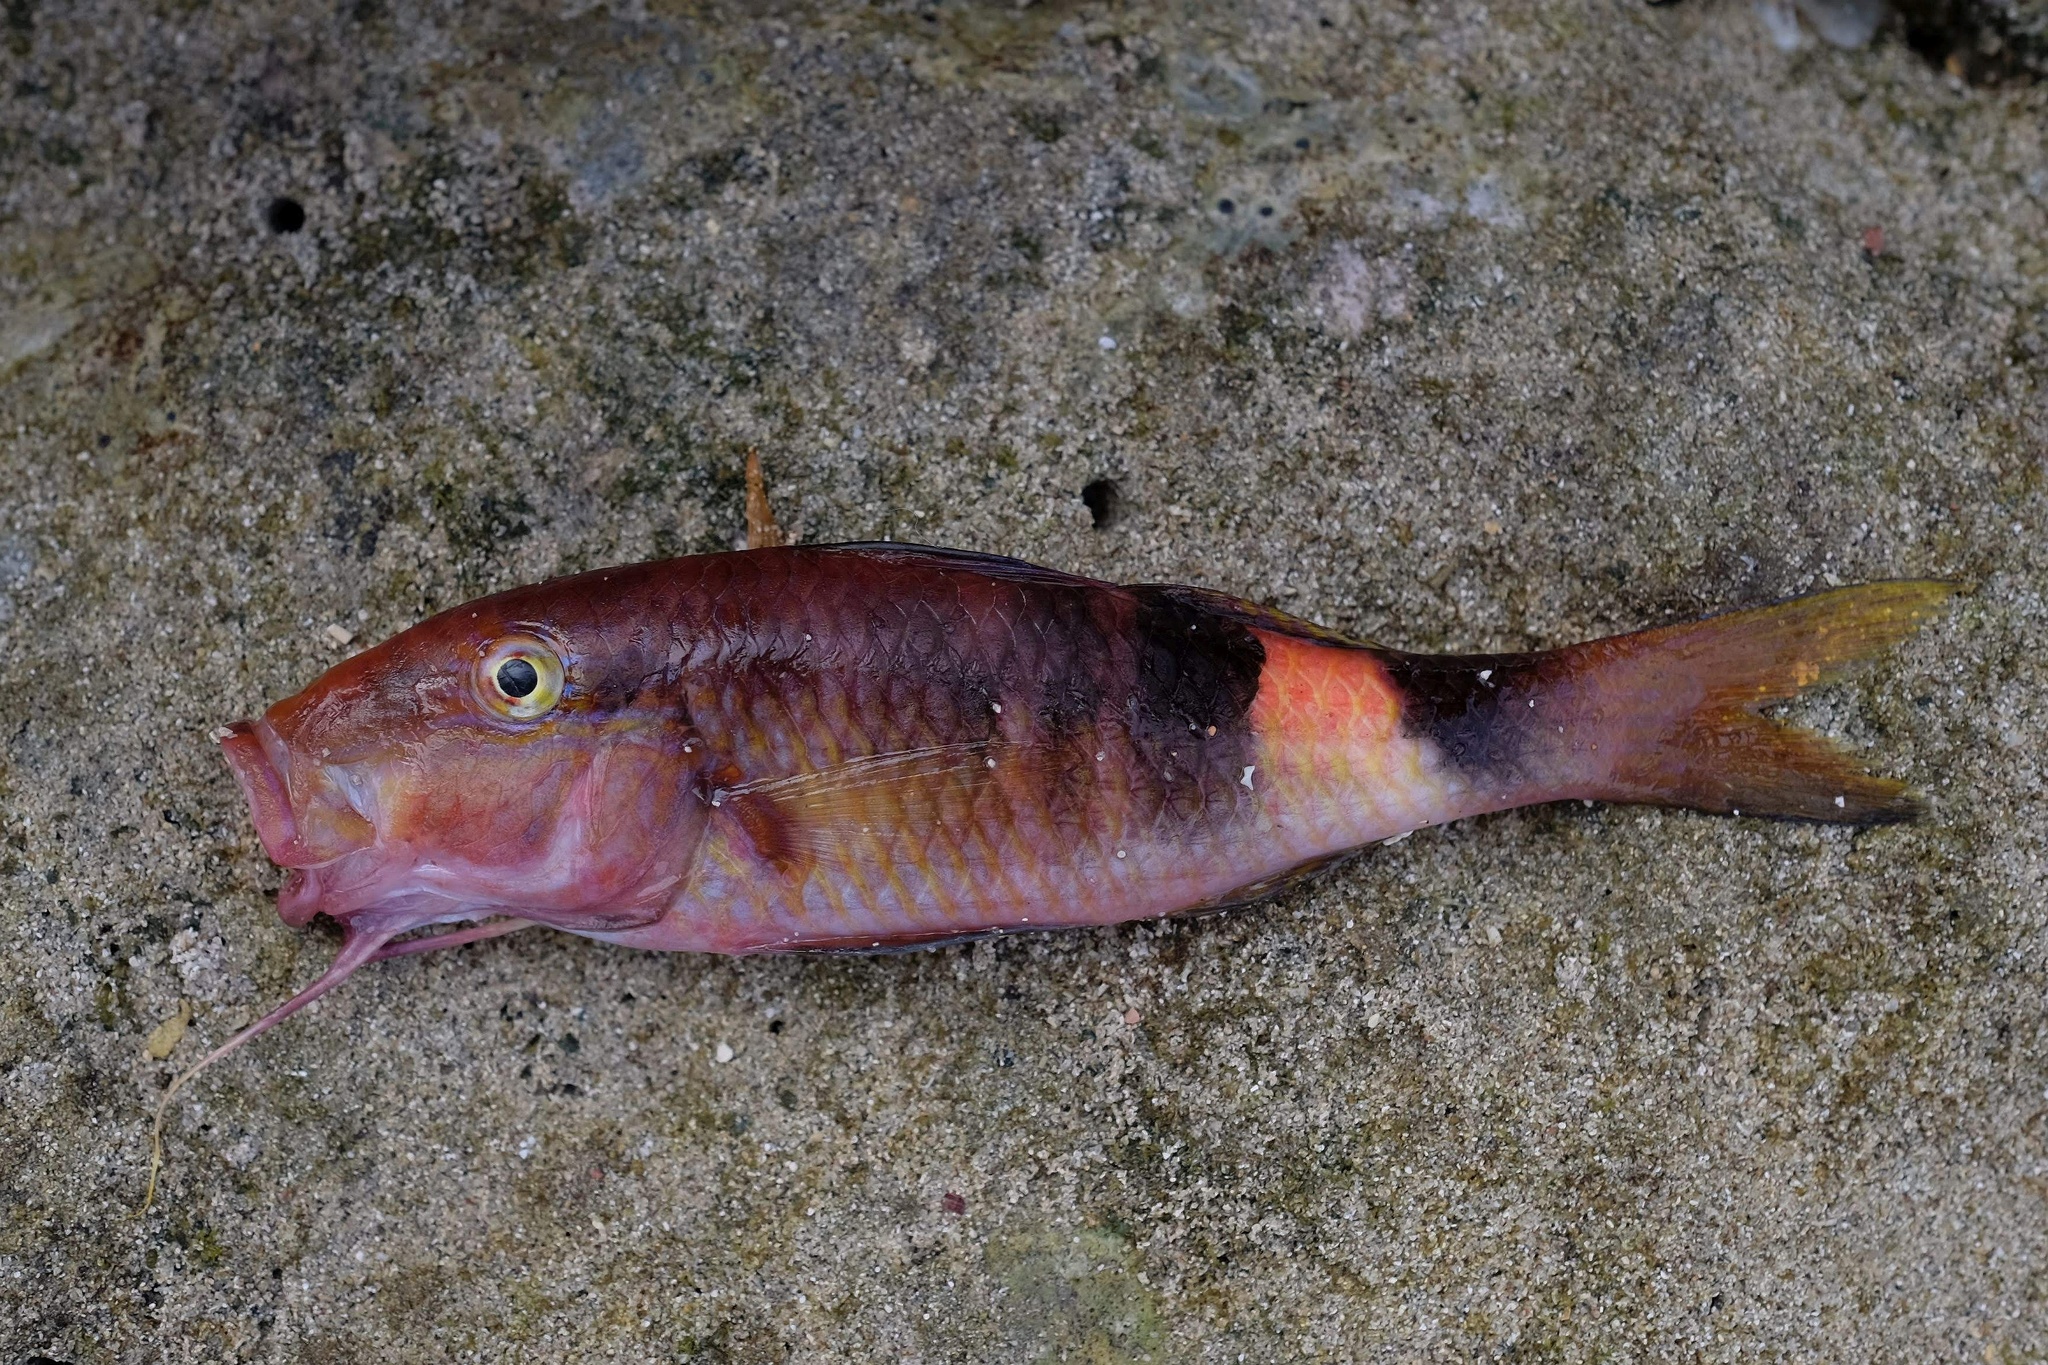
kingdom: Animalia
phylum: Chordata
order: Perciformes
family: Mullidae
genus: Parupeneus
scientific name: Parupeneus multifasciatus
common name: Manybar goatfish
